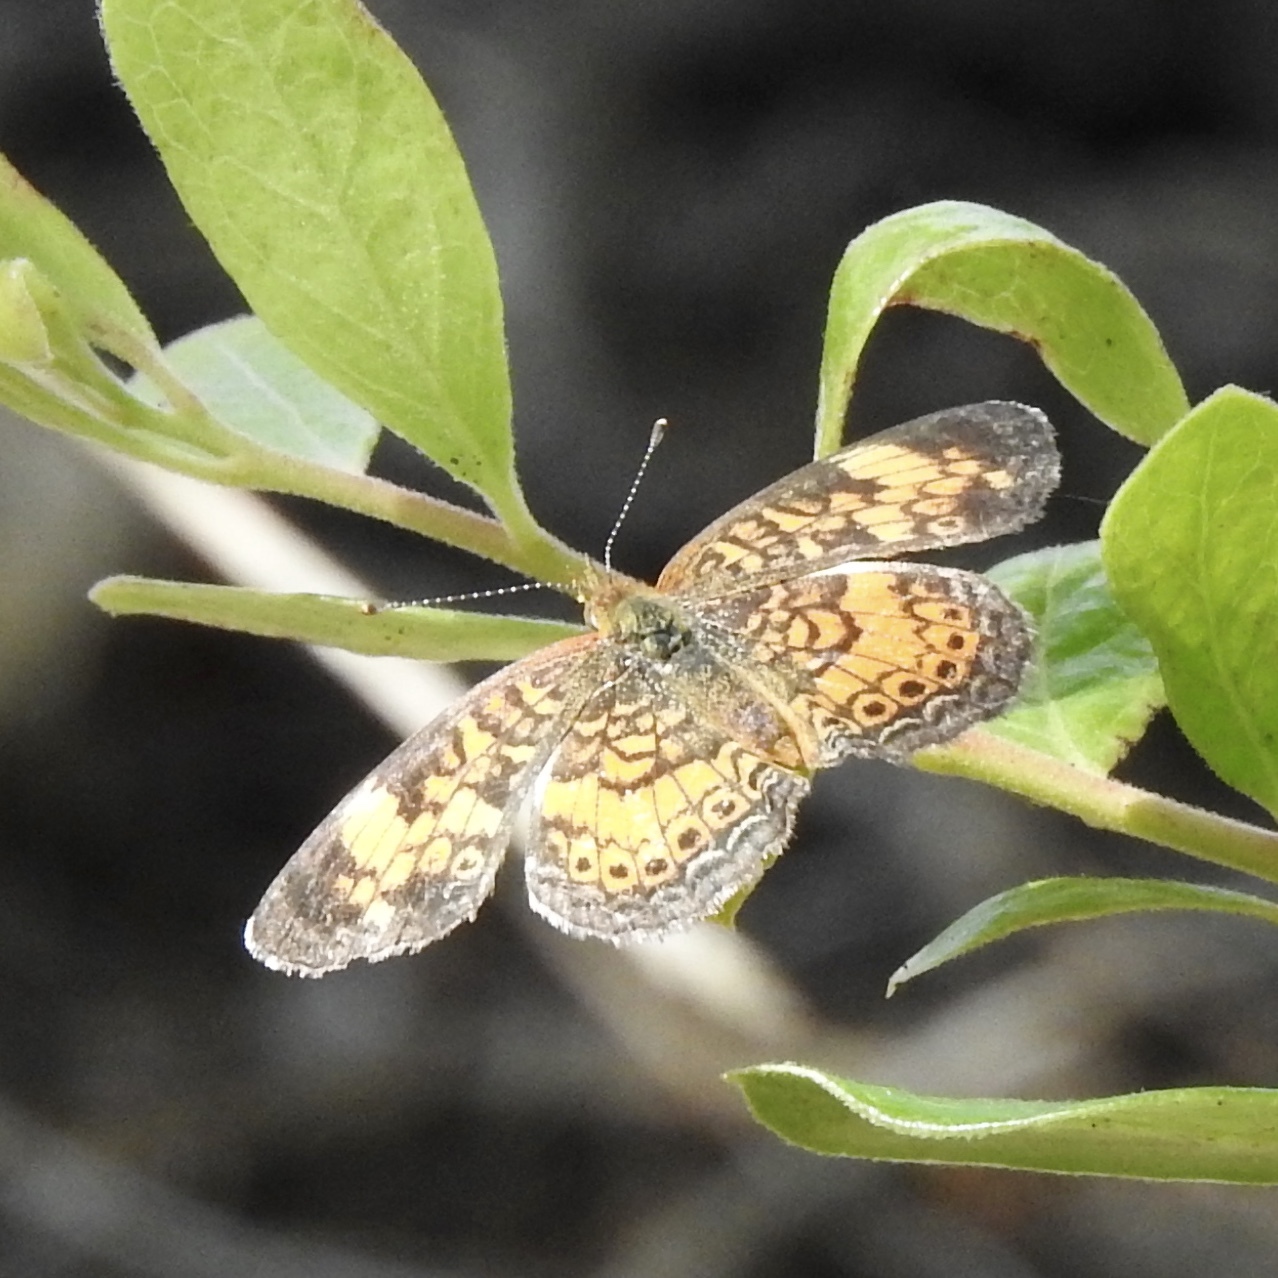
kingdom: Animalia
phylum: Arthropoda
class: Insecta
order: Lepidoptera
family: Nymphalidae
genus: Phyciodes
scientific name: Phyciodes tharos
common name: Pearl crescent
